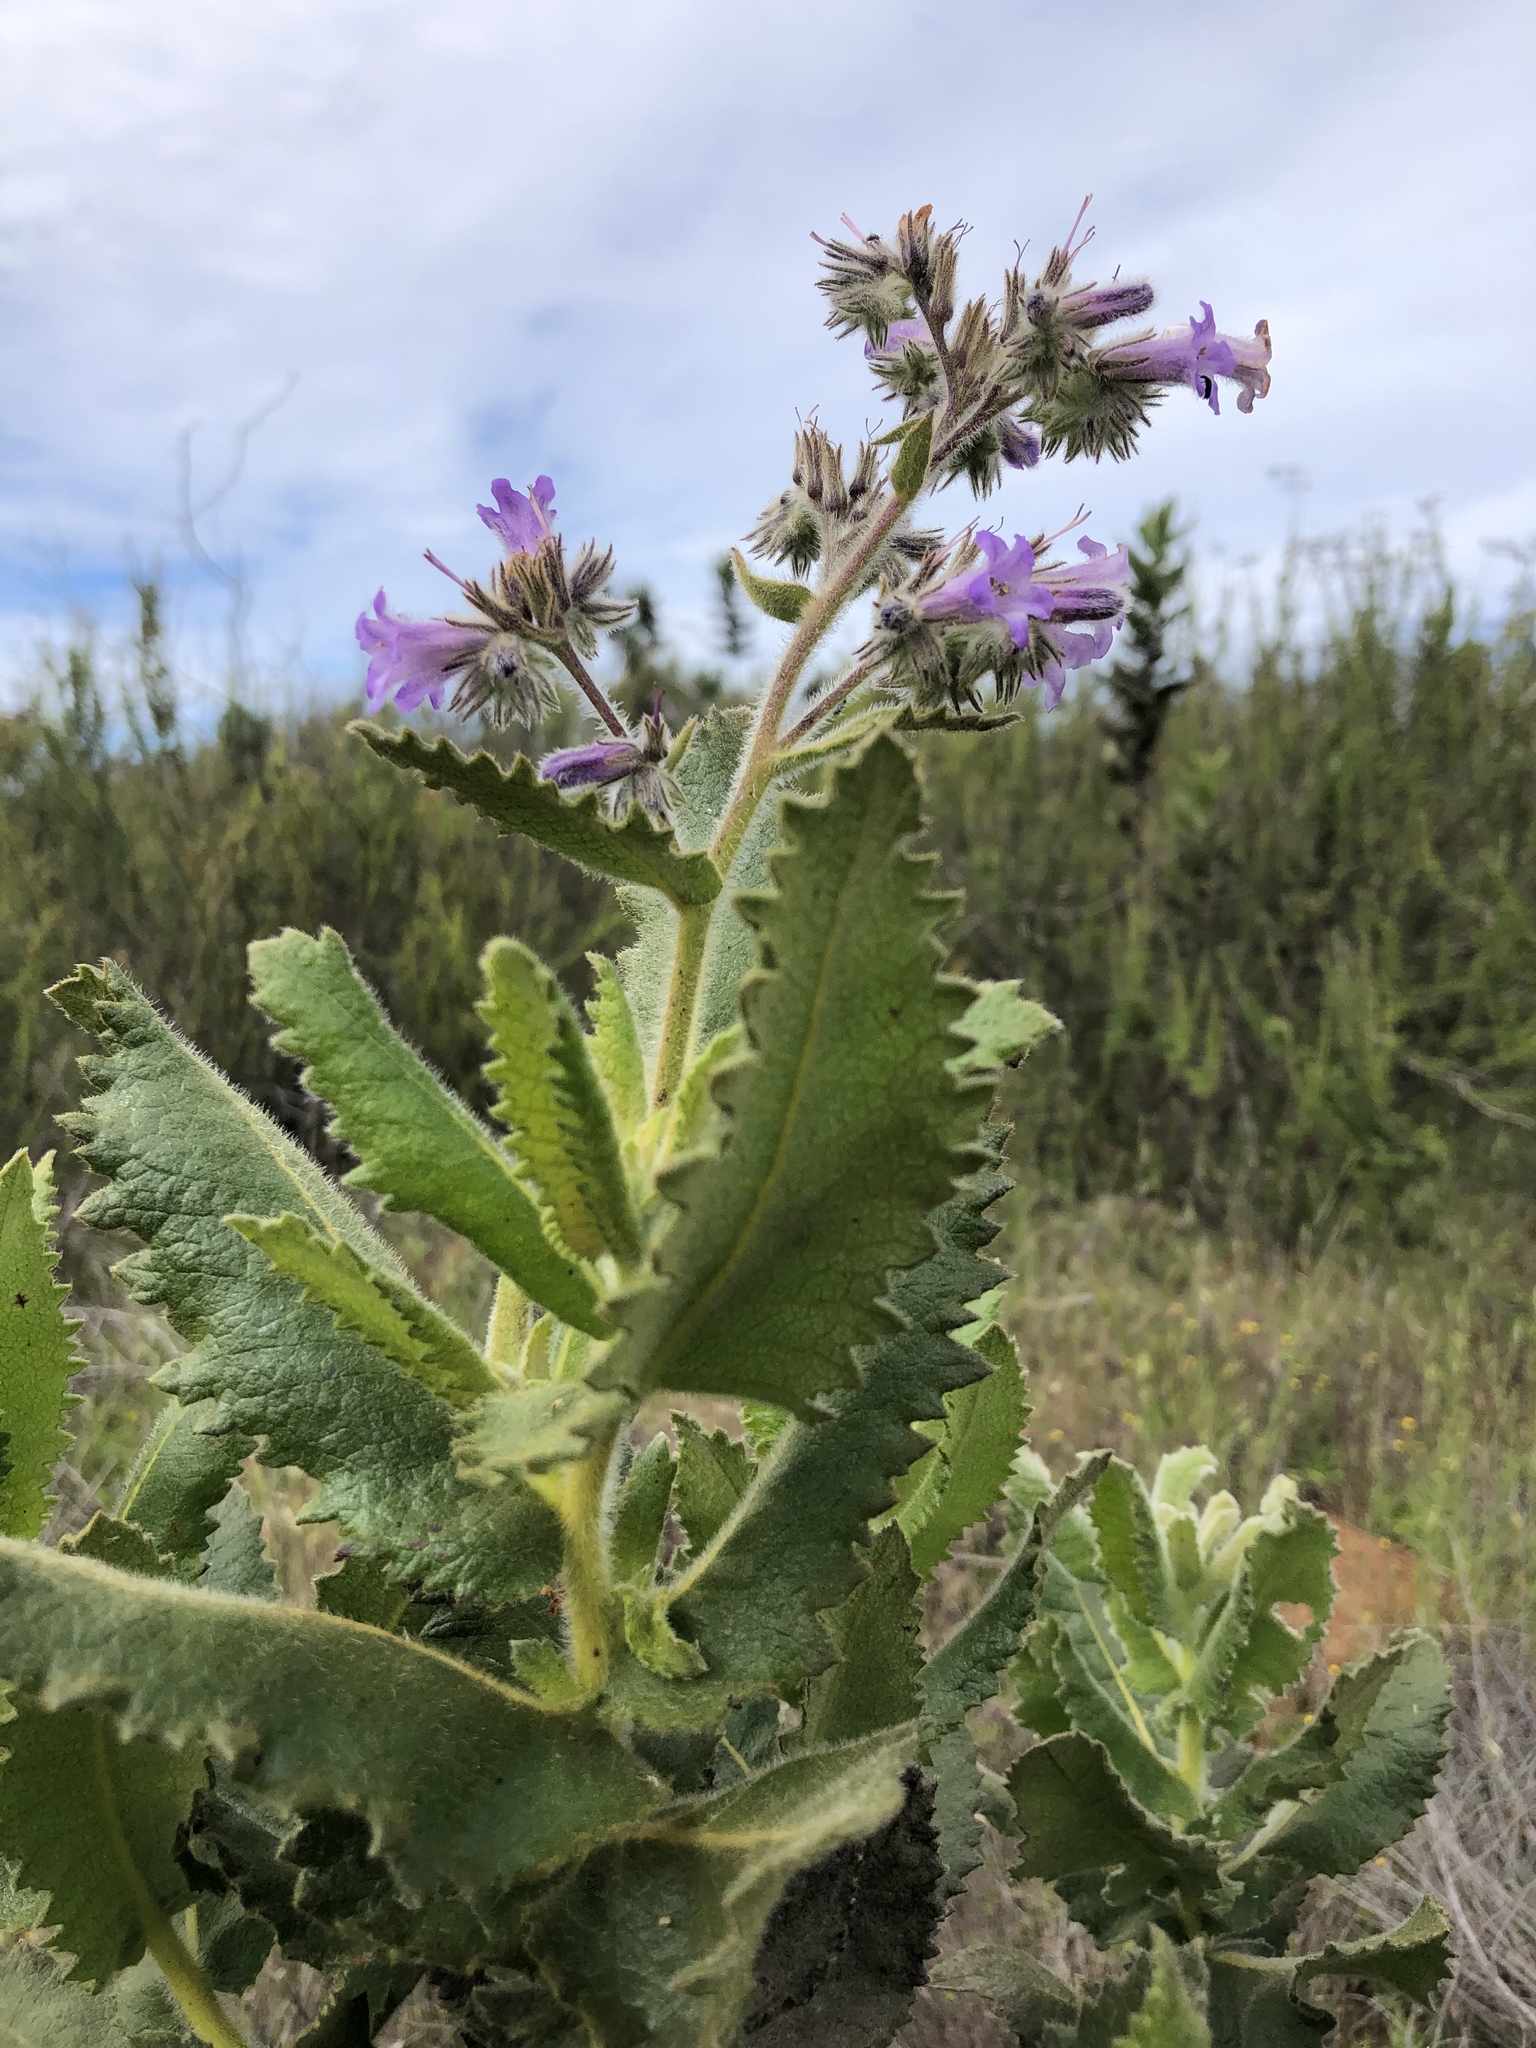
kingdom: Plantae
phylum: Tracheophyta
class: Magnoliopsida
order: Boraginales
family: Namaceae
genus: Eriodictyon
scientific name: Eriodictyon sessilifolium
